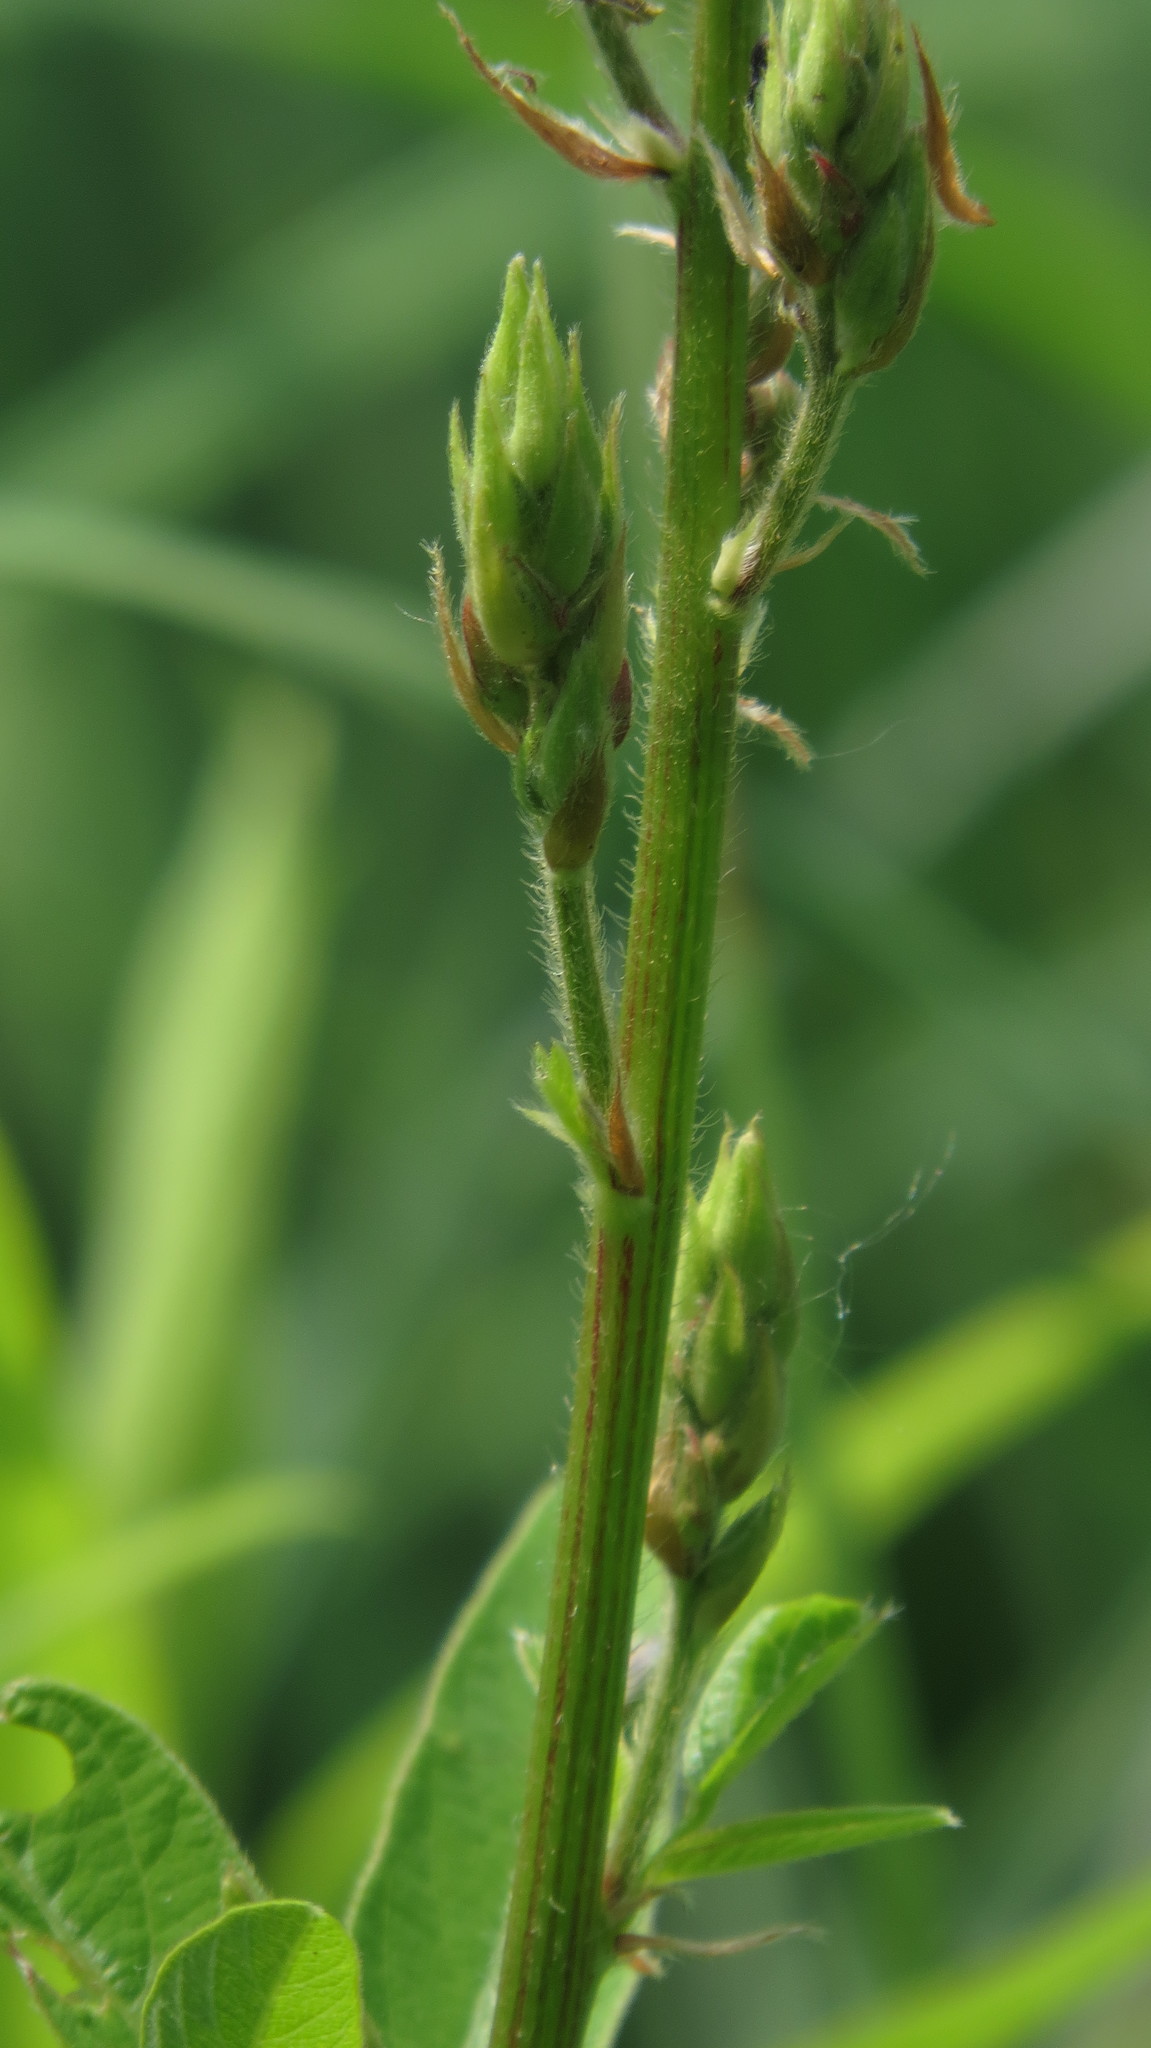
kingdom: Plantae
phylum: Tracheophyta
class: Magnoliopsida
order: Fabales
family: Fabaceae
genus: Desmodium
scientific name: Desmodium canadense
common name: Canada tick-trefoil
